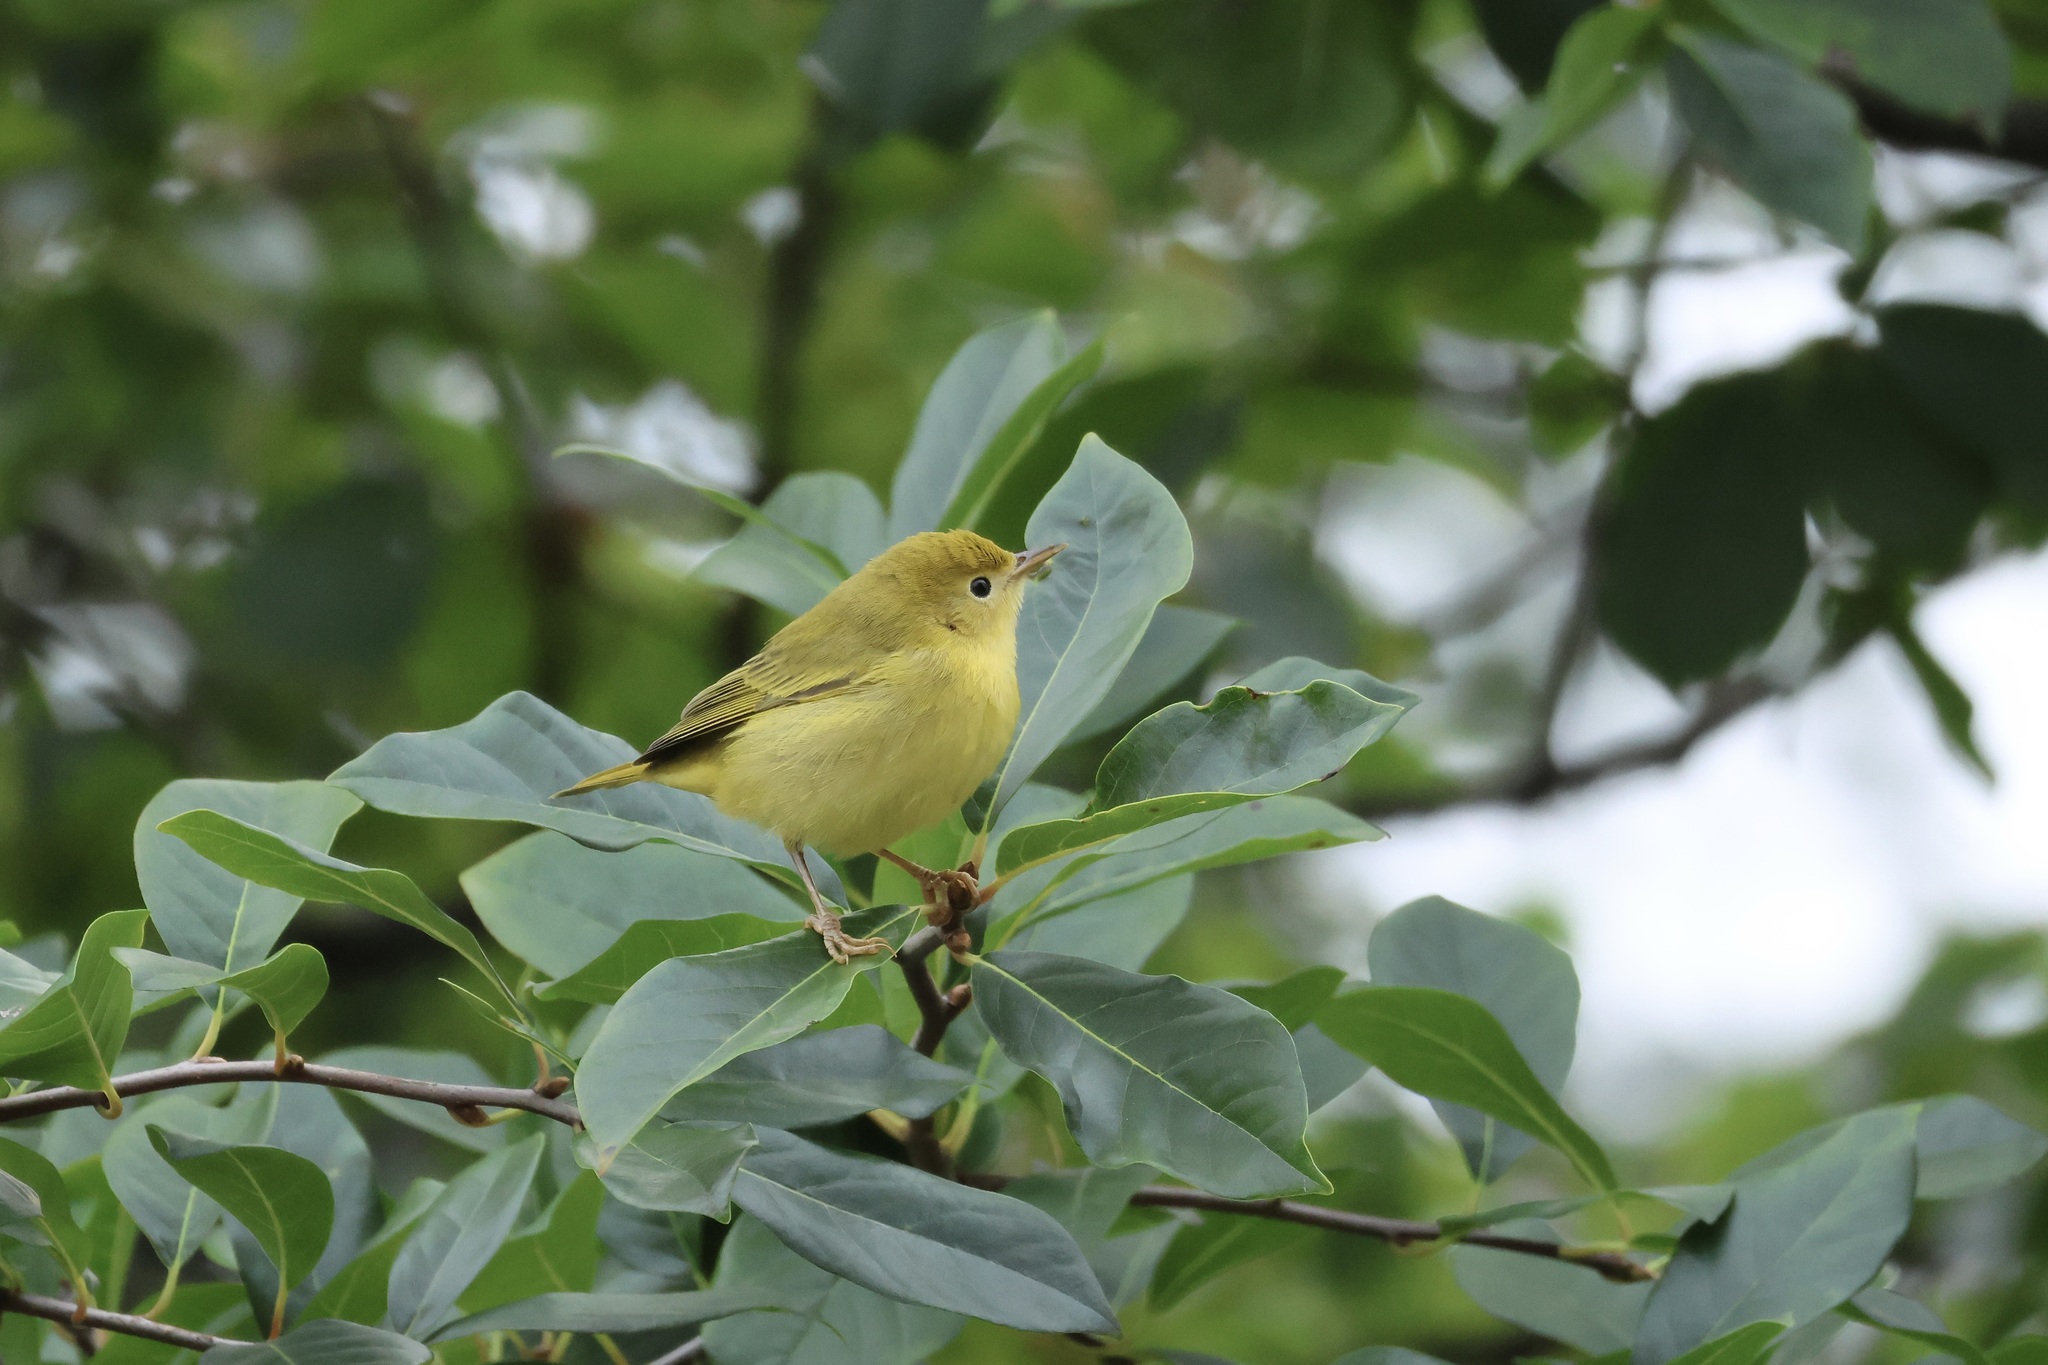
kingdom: Animalia
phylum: Chordata
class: Aves
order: Passeriformes
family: Parulidae
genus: Setophaga
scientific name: Setophaga petechia
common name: Yellow warbler
